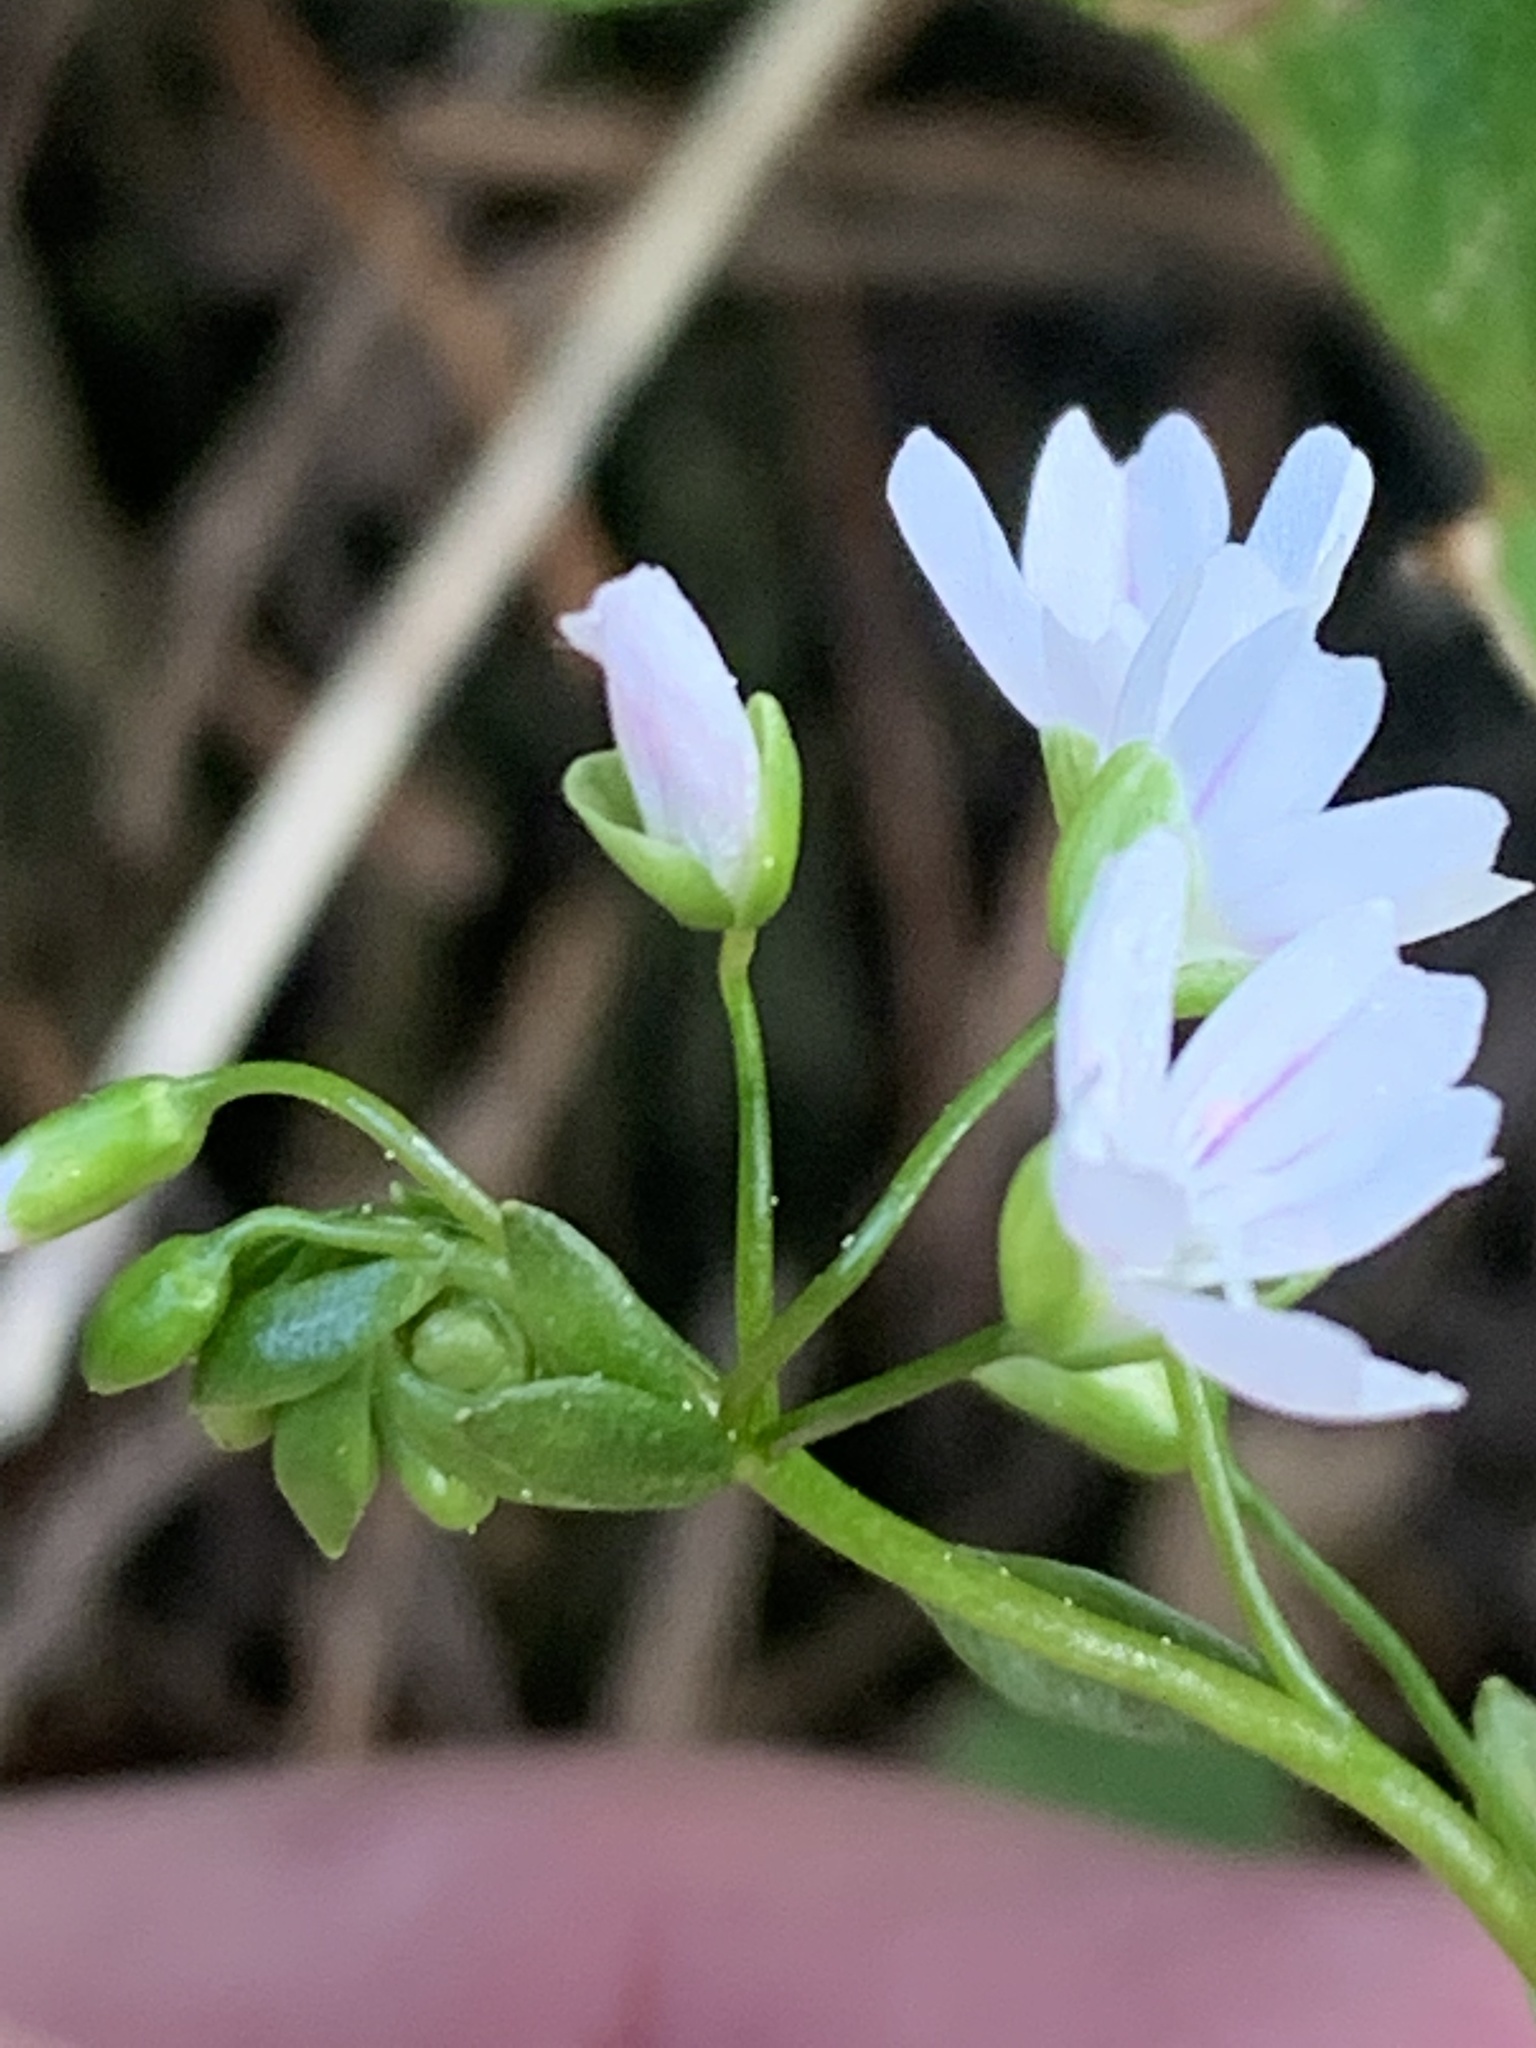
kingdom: Plantae
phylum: Tracheophyta
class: Magnoliopsida
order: Caryophyllales
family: Montiaceae
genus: Claytonia
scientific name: Claytonia washingtoniana
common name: Lake washington claytonia
